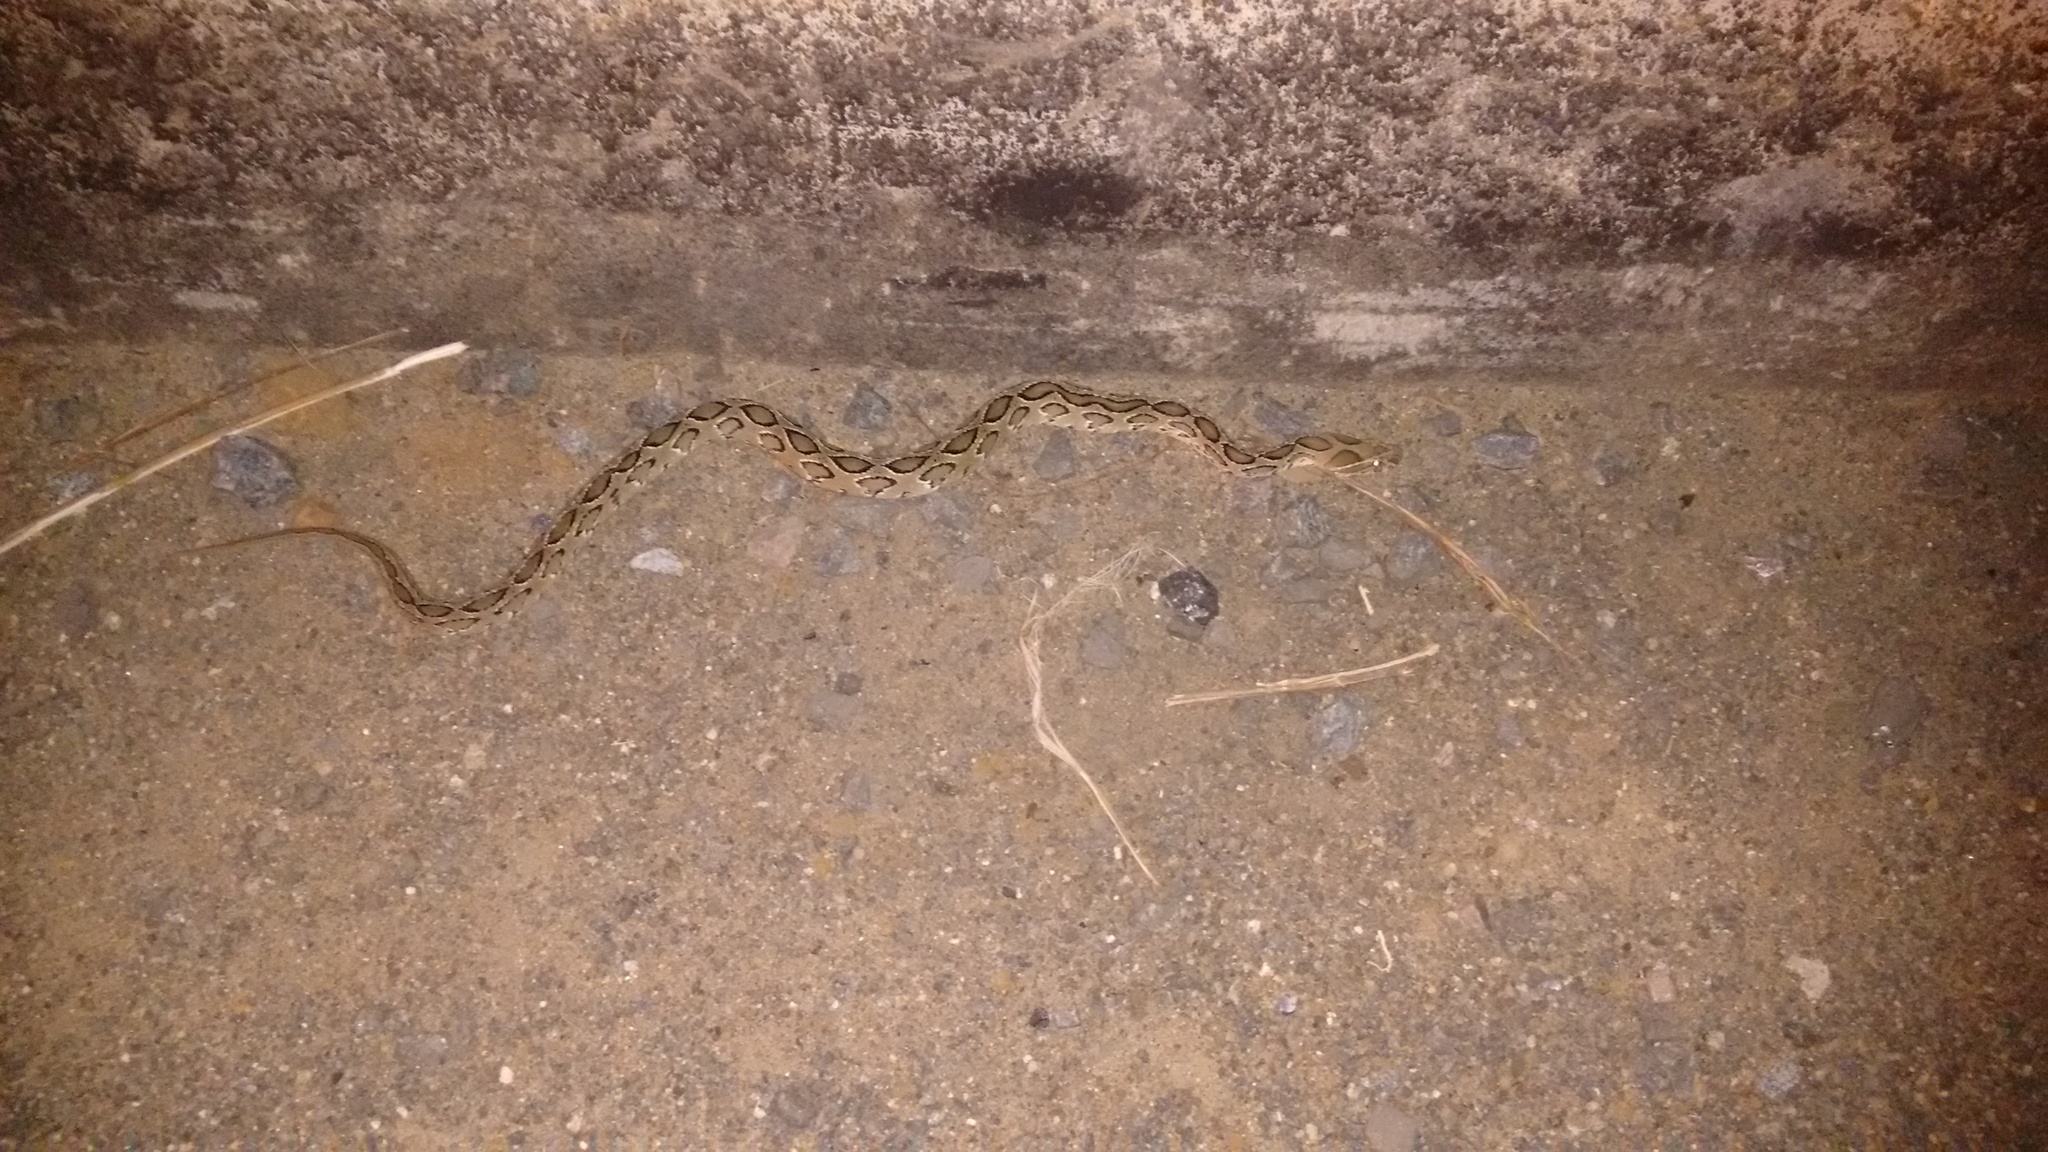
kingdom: Animalia
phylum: Chordata
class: Squamata
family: Viperidae
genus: Daboia
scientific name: Daboia russelii
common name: Western russel’s viper
